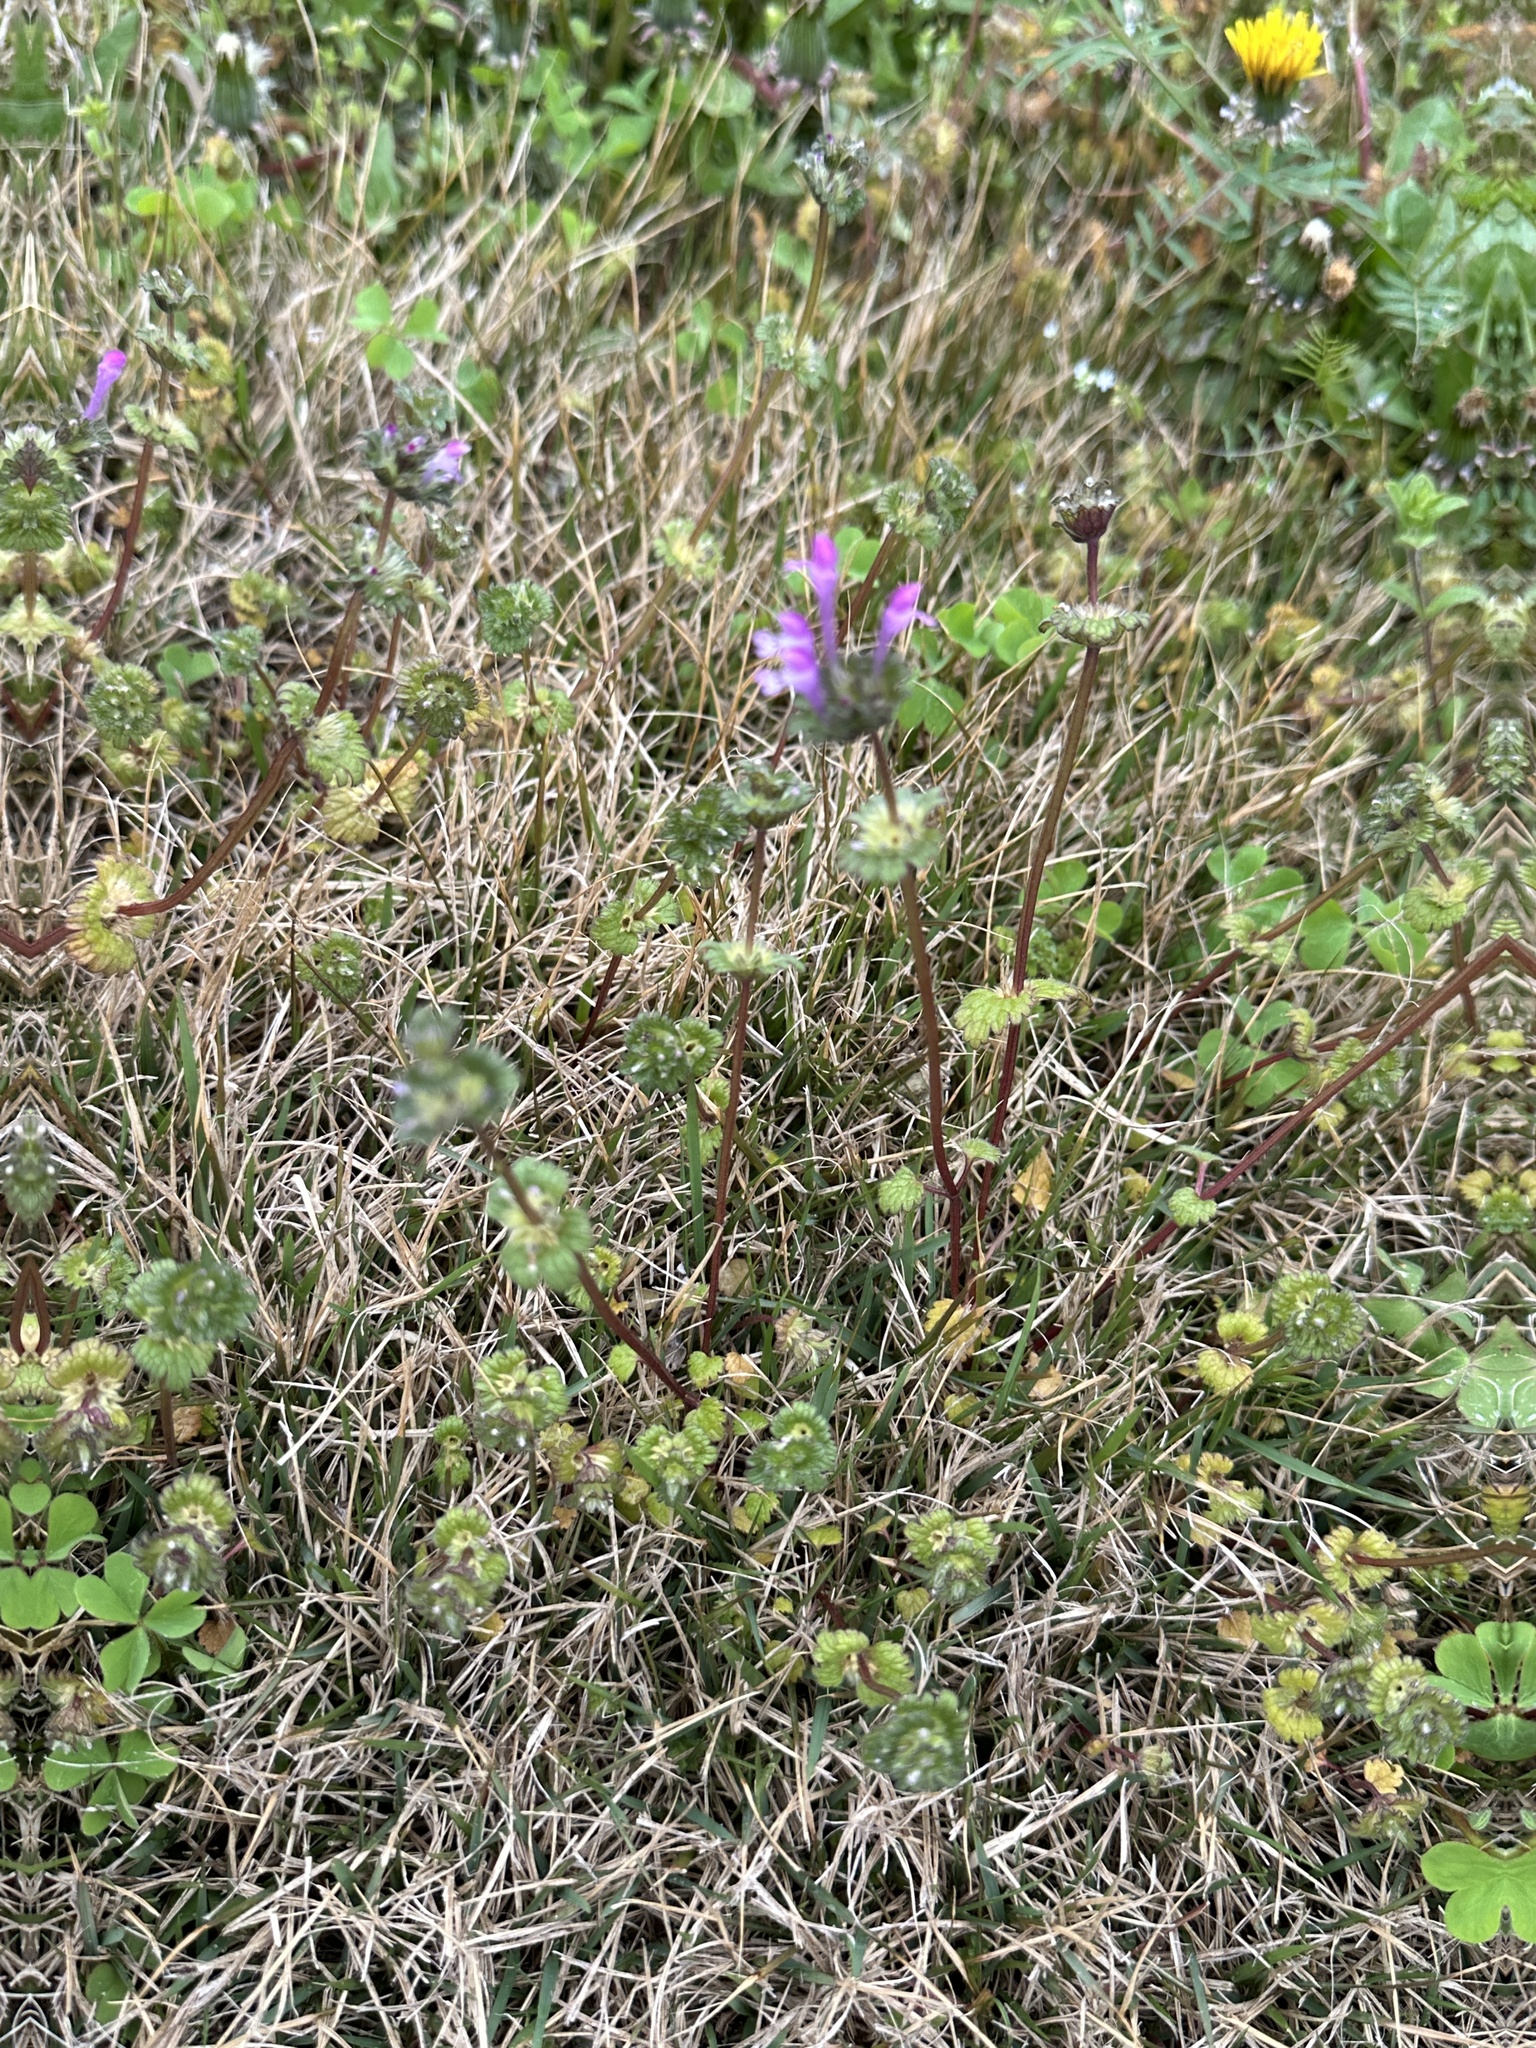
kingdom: Plantae
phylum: Tracheophyta
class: Magnoliopsida
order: Lamiales
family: Lamiaceae
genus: Lamium
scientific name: Lamium amplexicaule
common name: Henbit dead-nettle
